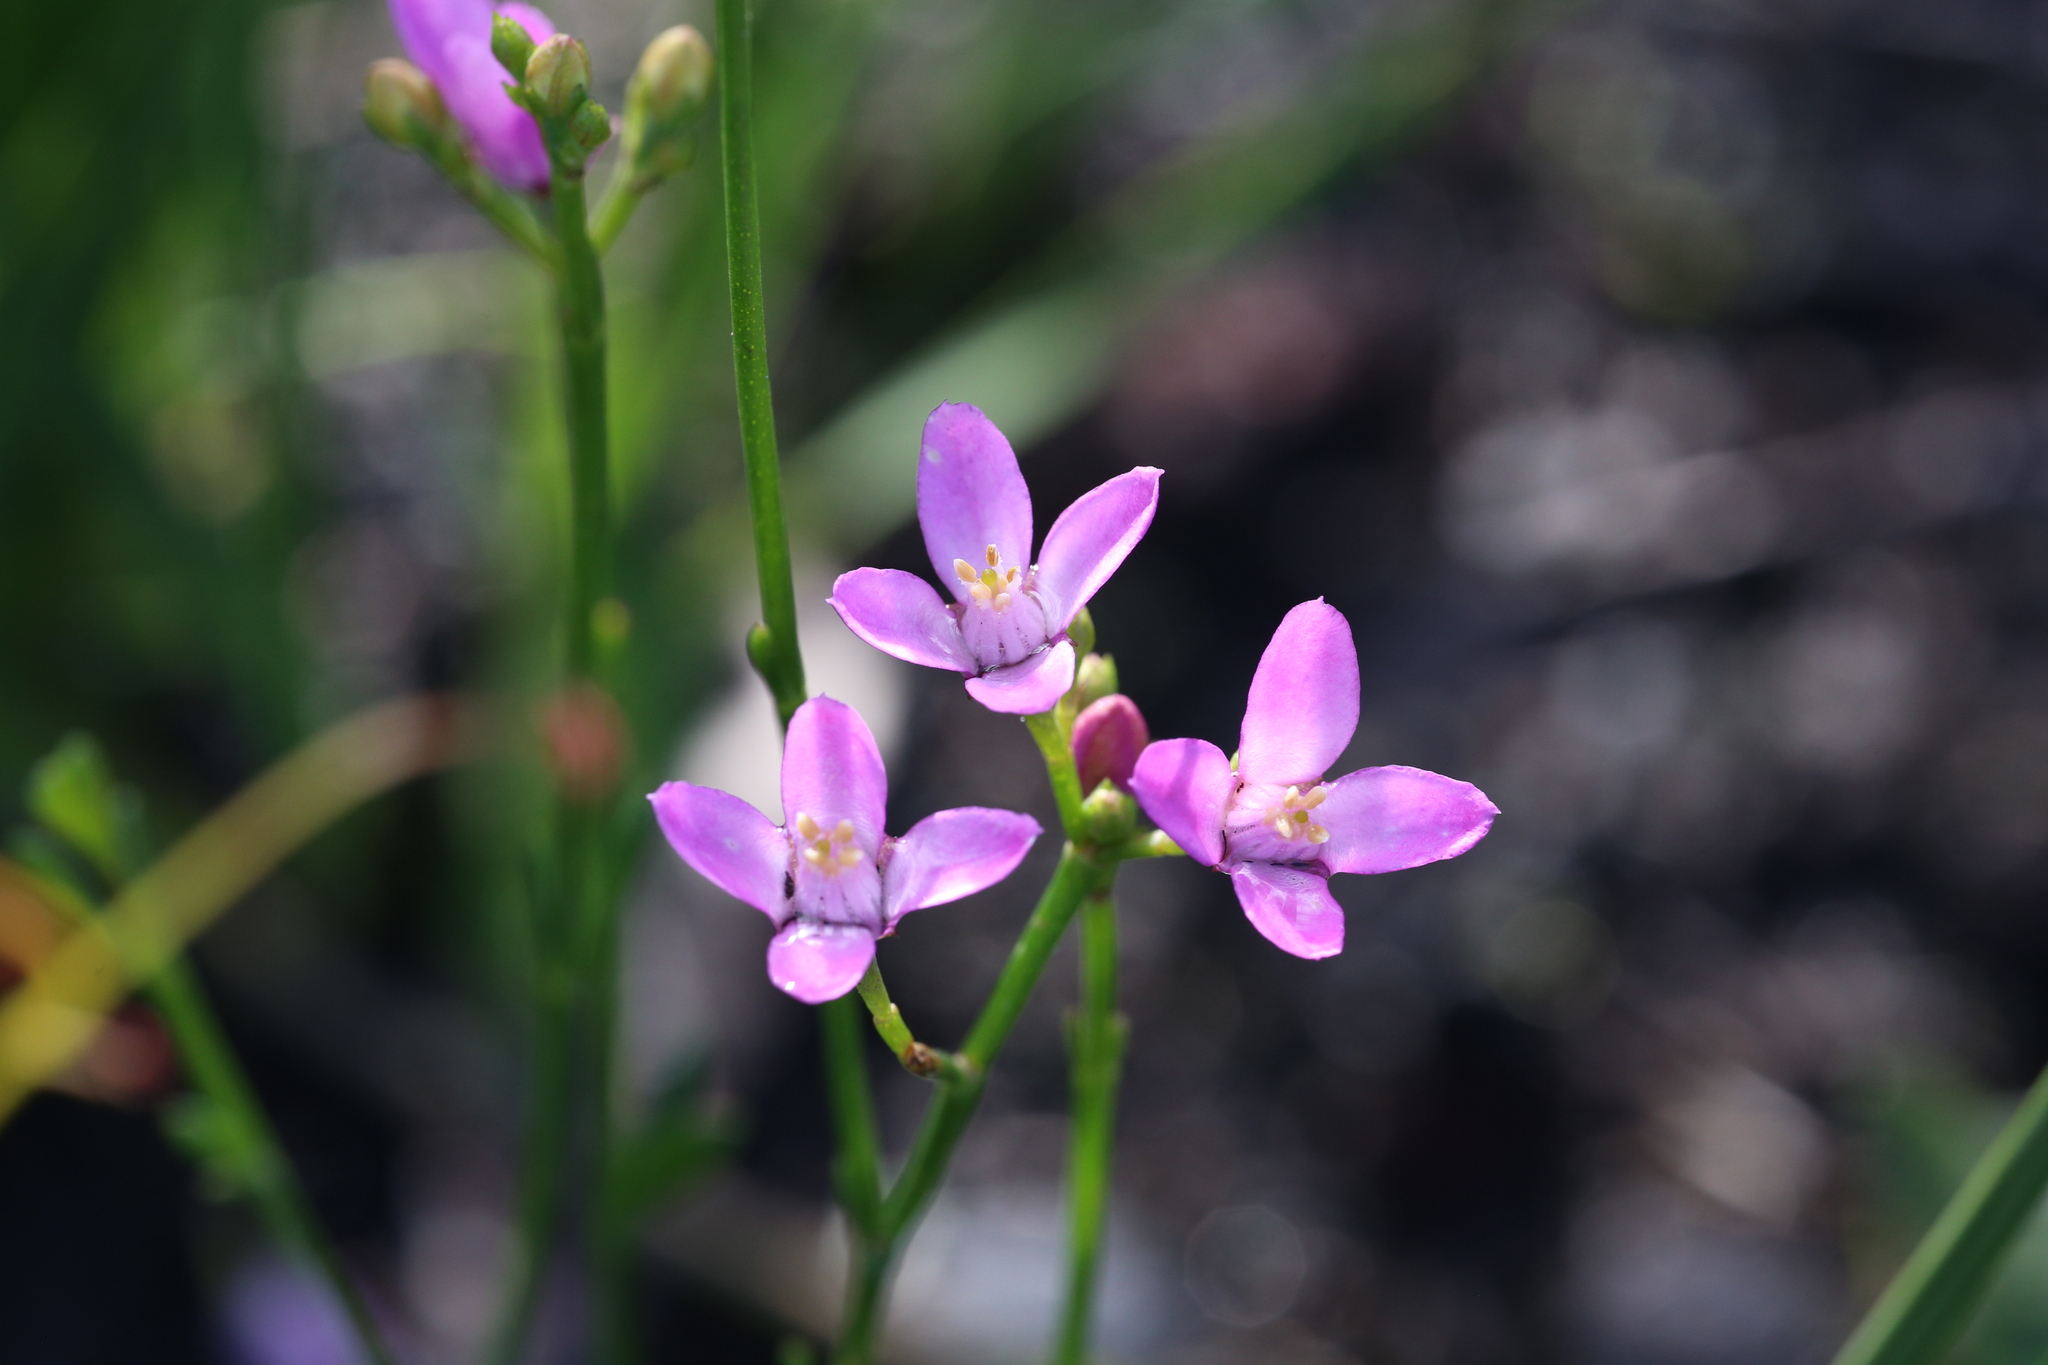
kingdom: Plantae
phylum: Tracheophyta
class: Magnoliopsida
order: Sapindales
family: Rutaceae
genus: Boronia
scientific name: Boronia spathulata
